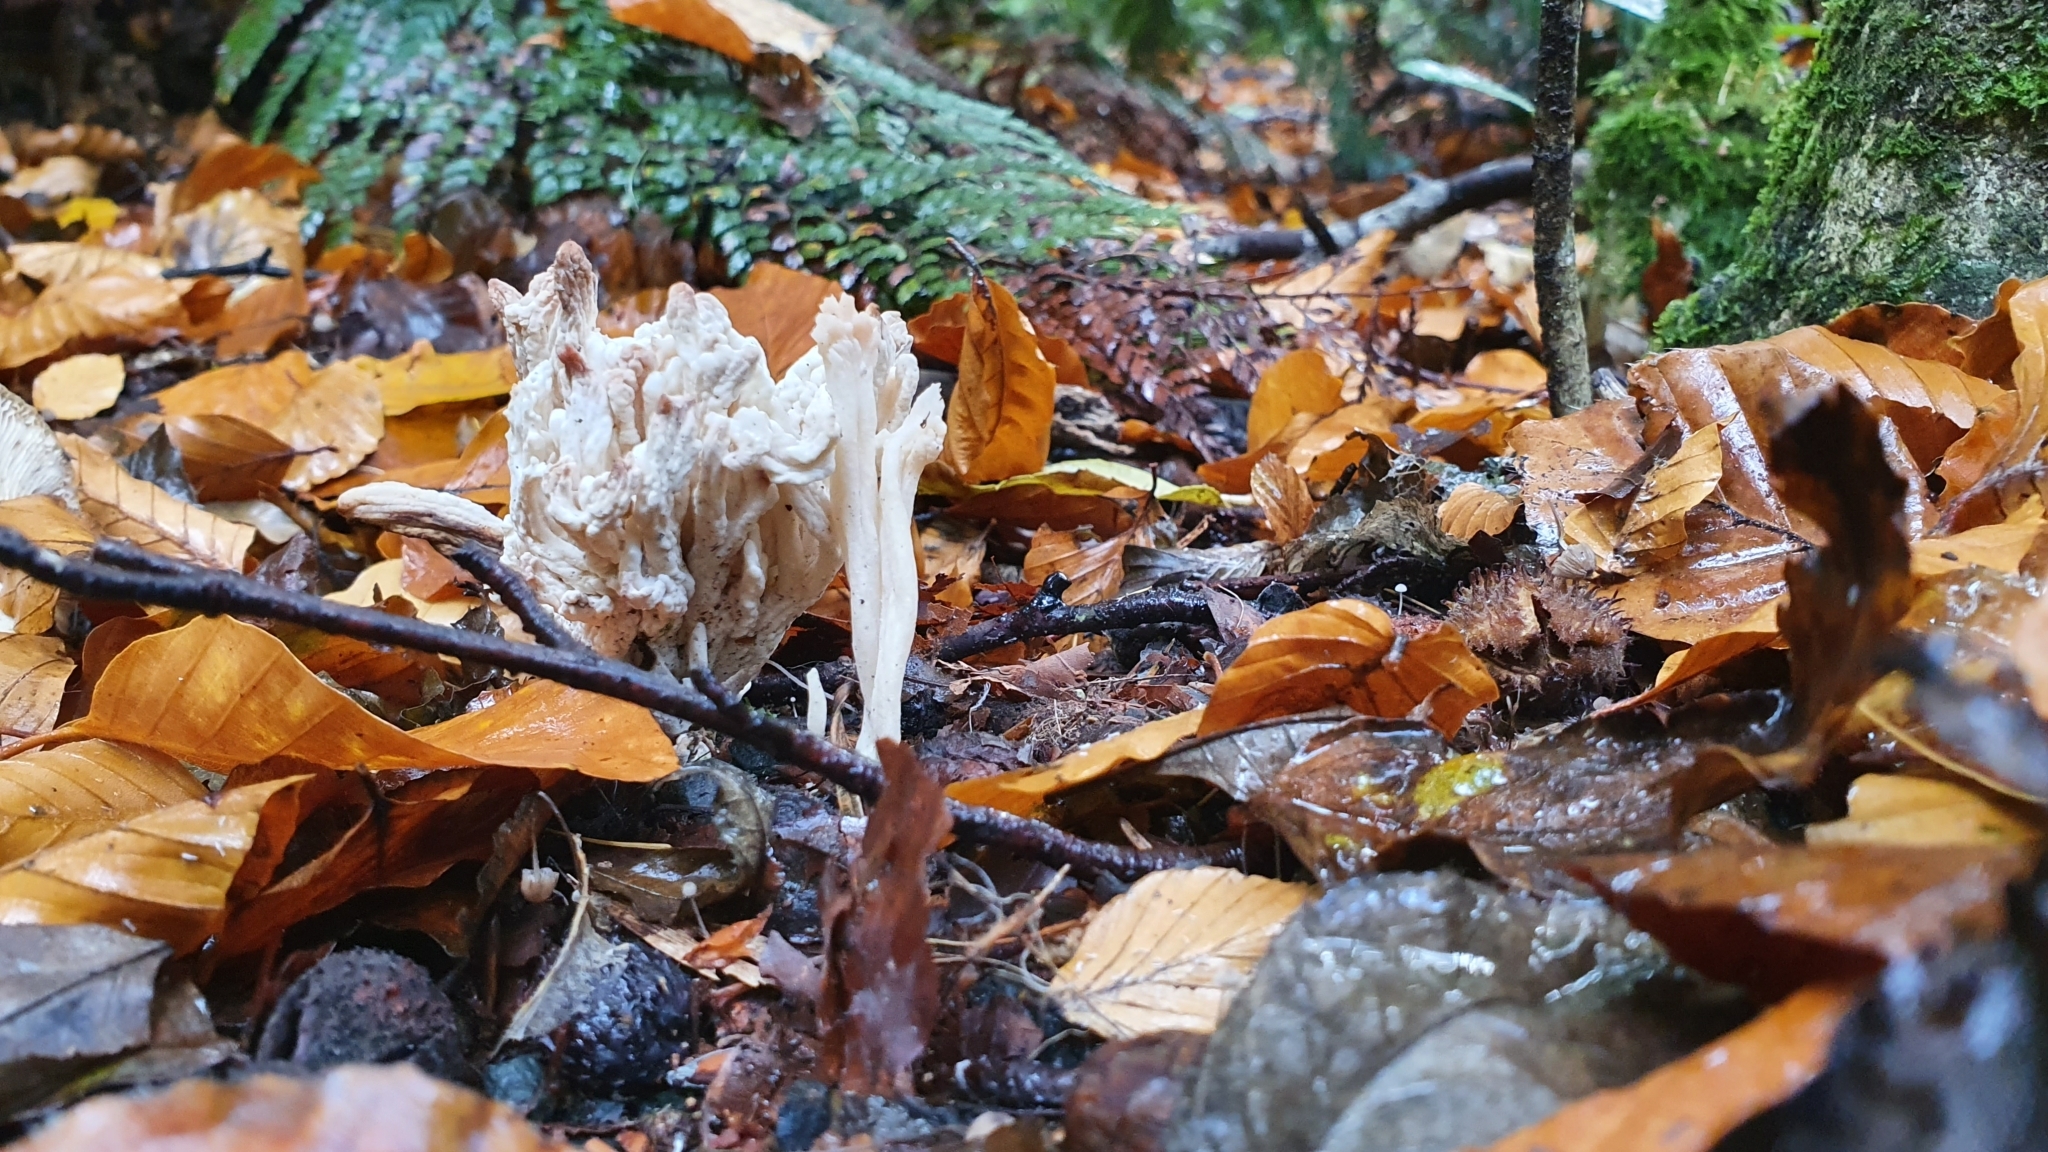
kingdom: Fungi
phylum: Basidiomycota
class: Agaricomycetes
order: Cantharellales
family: Hydnaceae
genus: Clavulina
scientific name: Clavulina rugosa
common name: Wrinkled club
